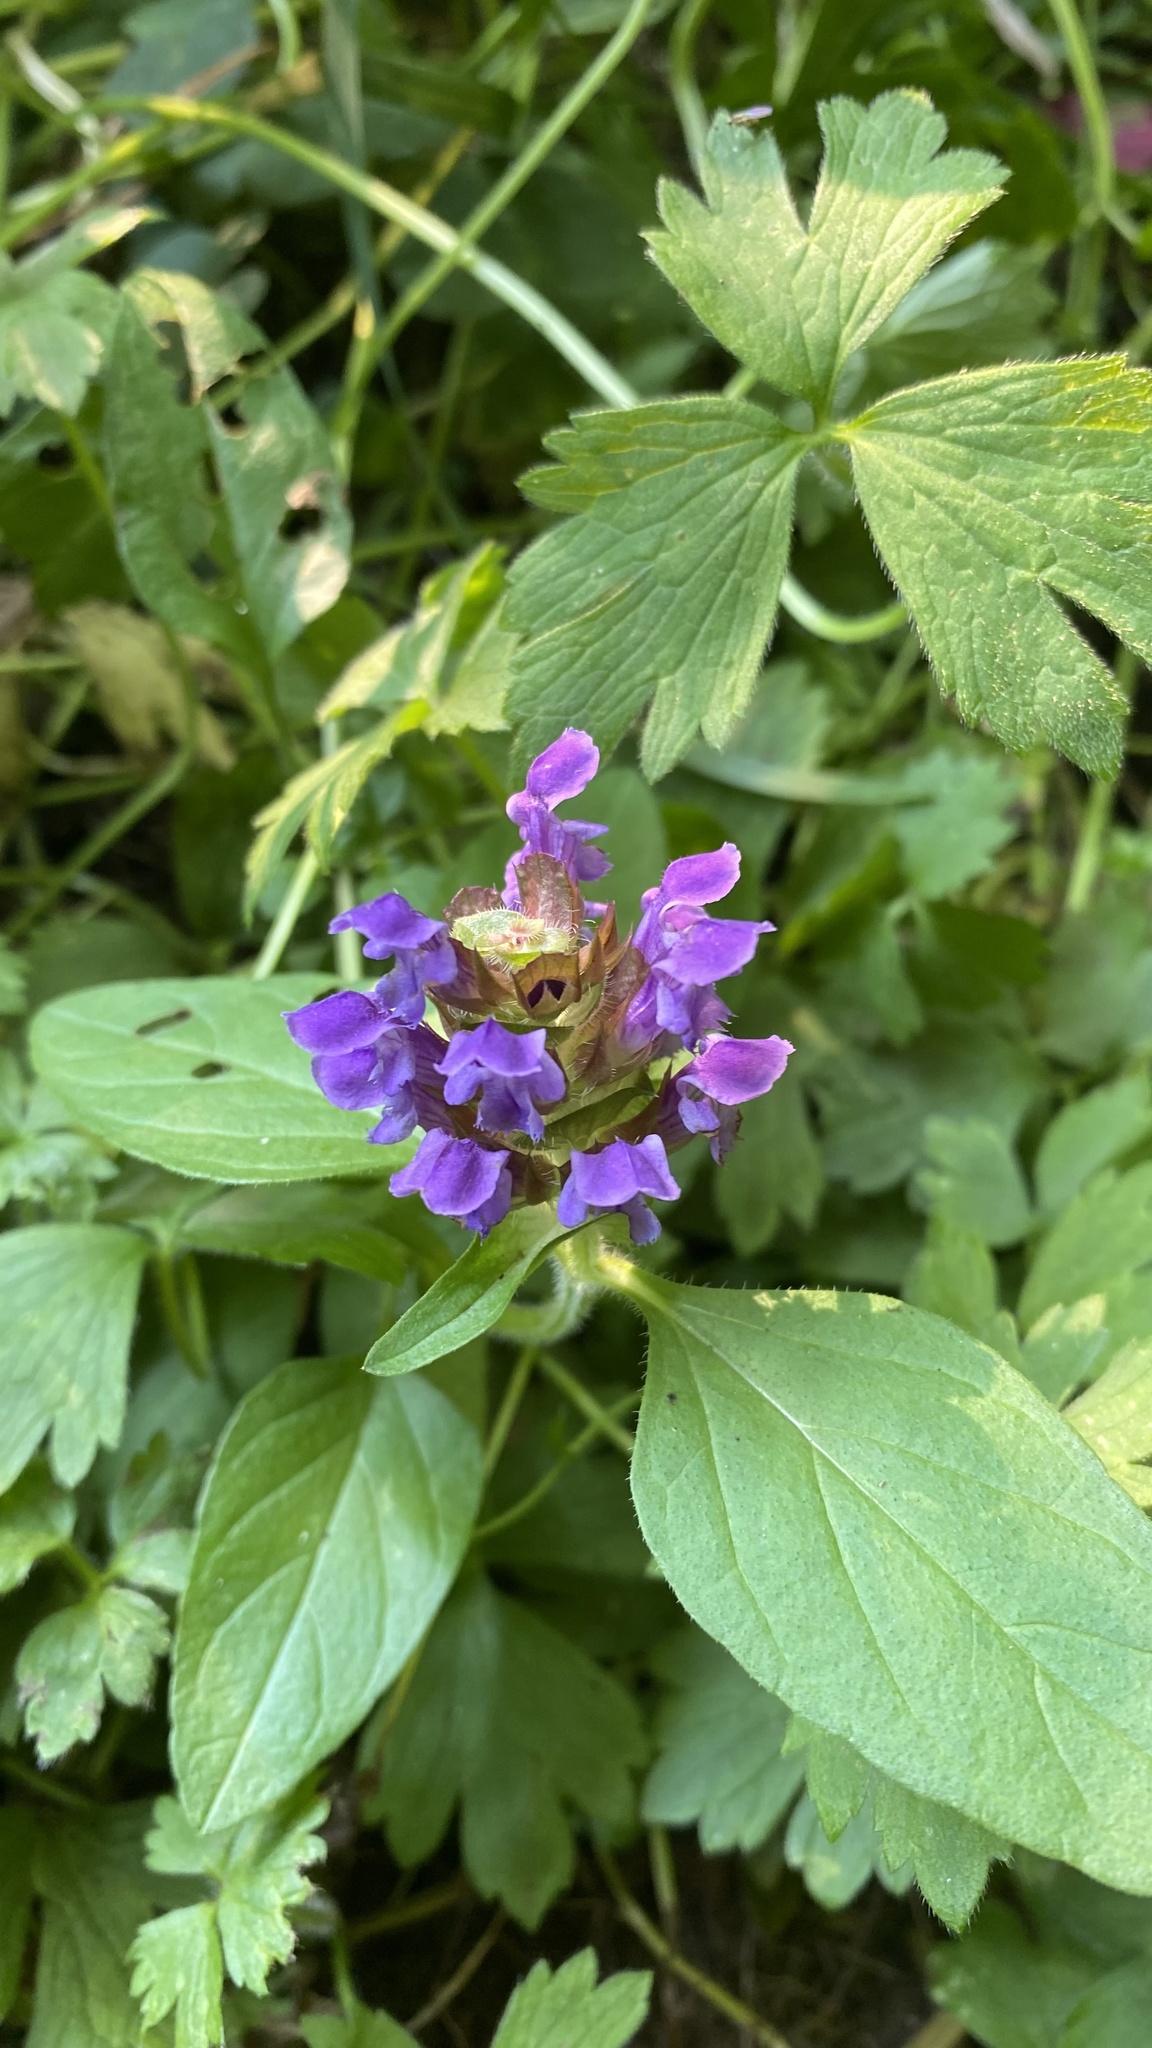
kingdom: Plantae
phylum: Tracheophyta
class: Magnoliopsida
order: Lamiales
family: Lamiaceae
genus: Prunella
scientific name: Prunella vulgaris
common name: Heal-all
